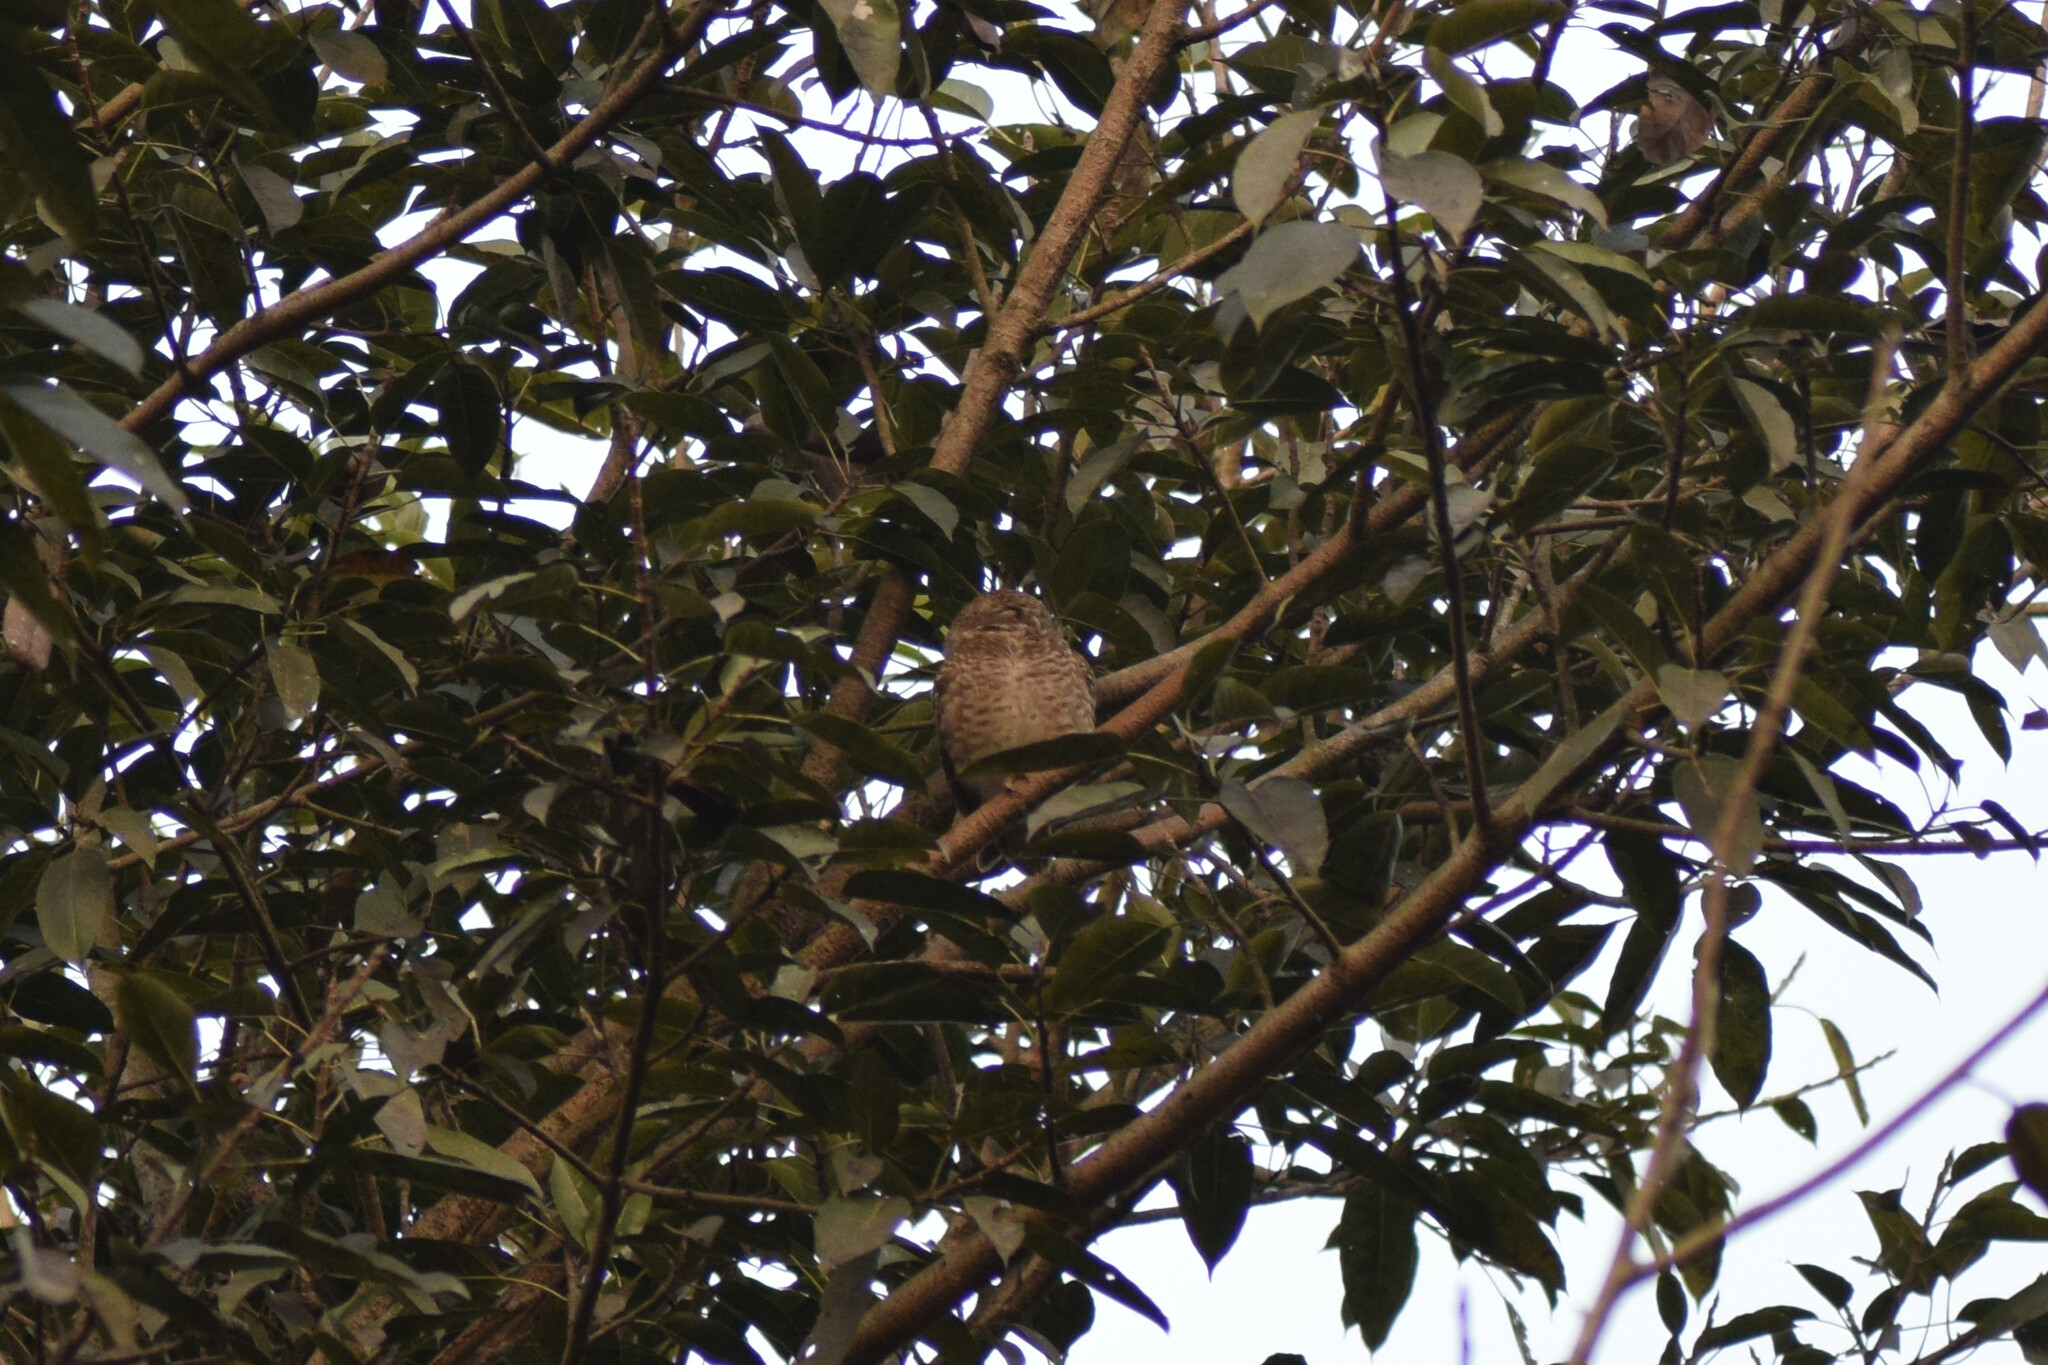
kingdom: Animalia
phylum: Chordata
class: Aves
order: Strigiformes
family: Strigidae
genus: Athene
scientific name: Athene brama
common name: Spotted owlet
